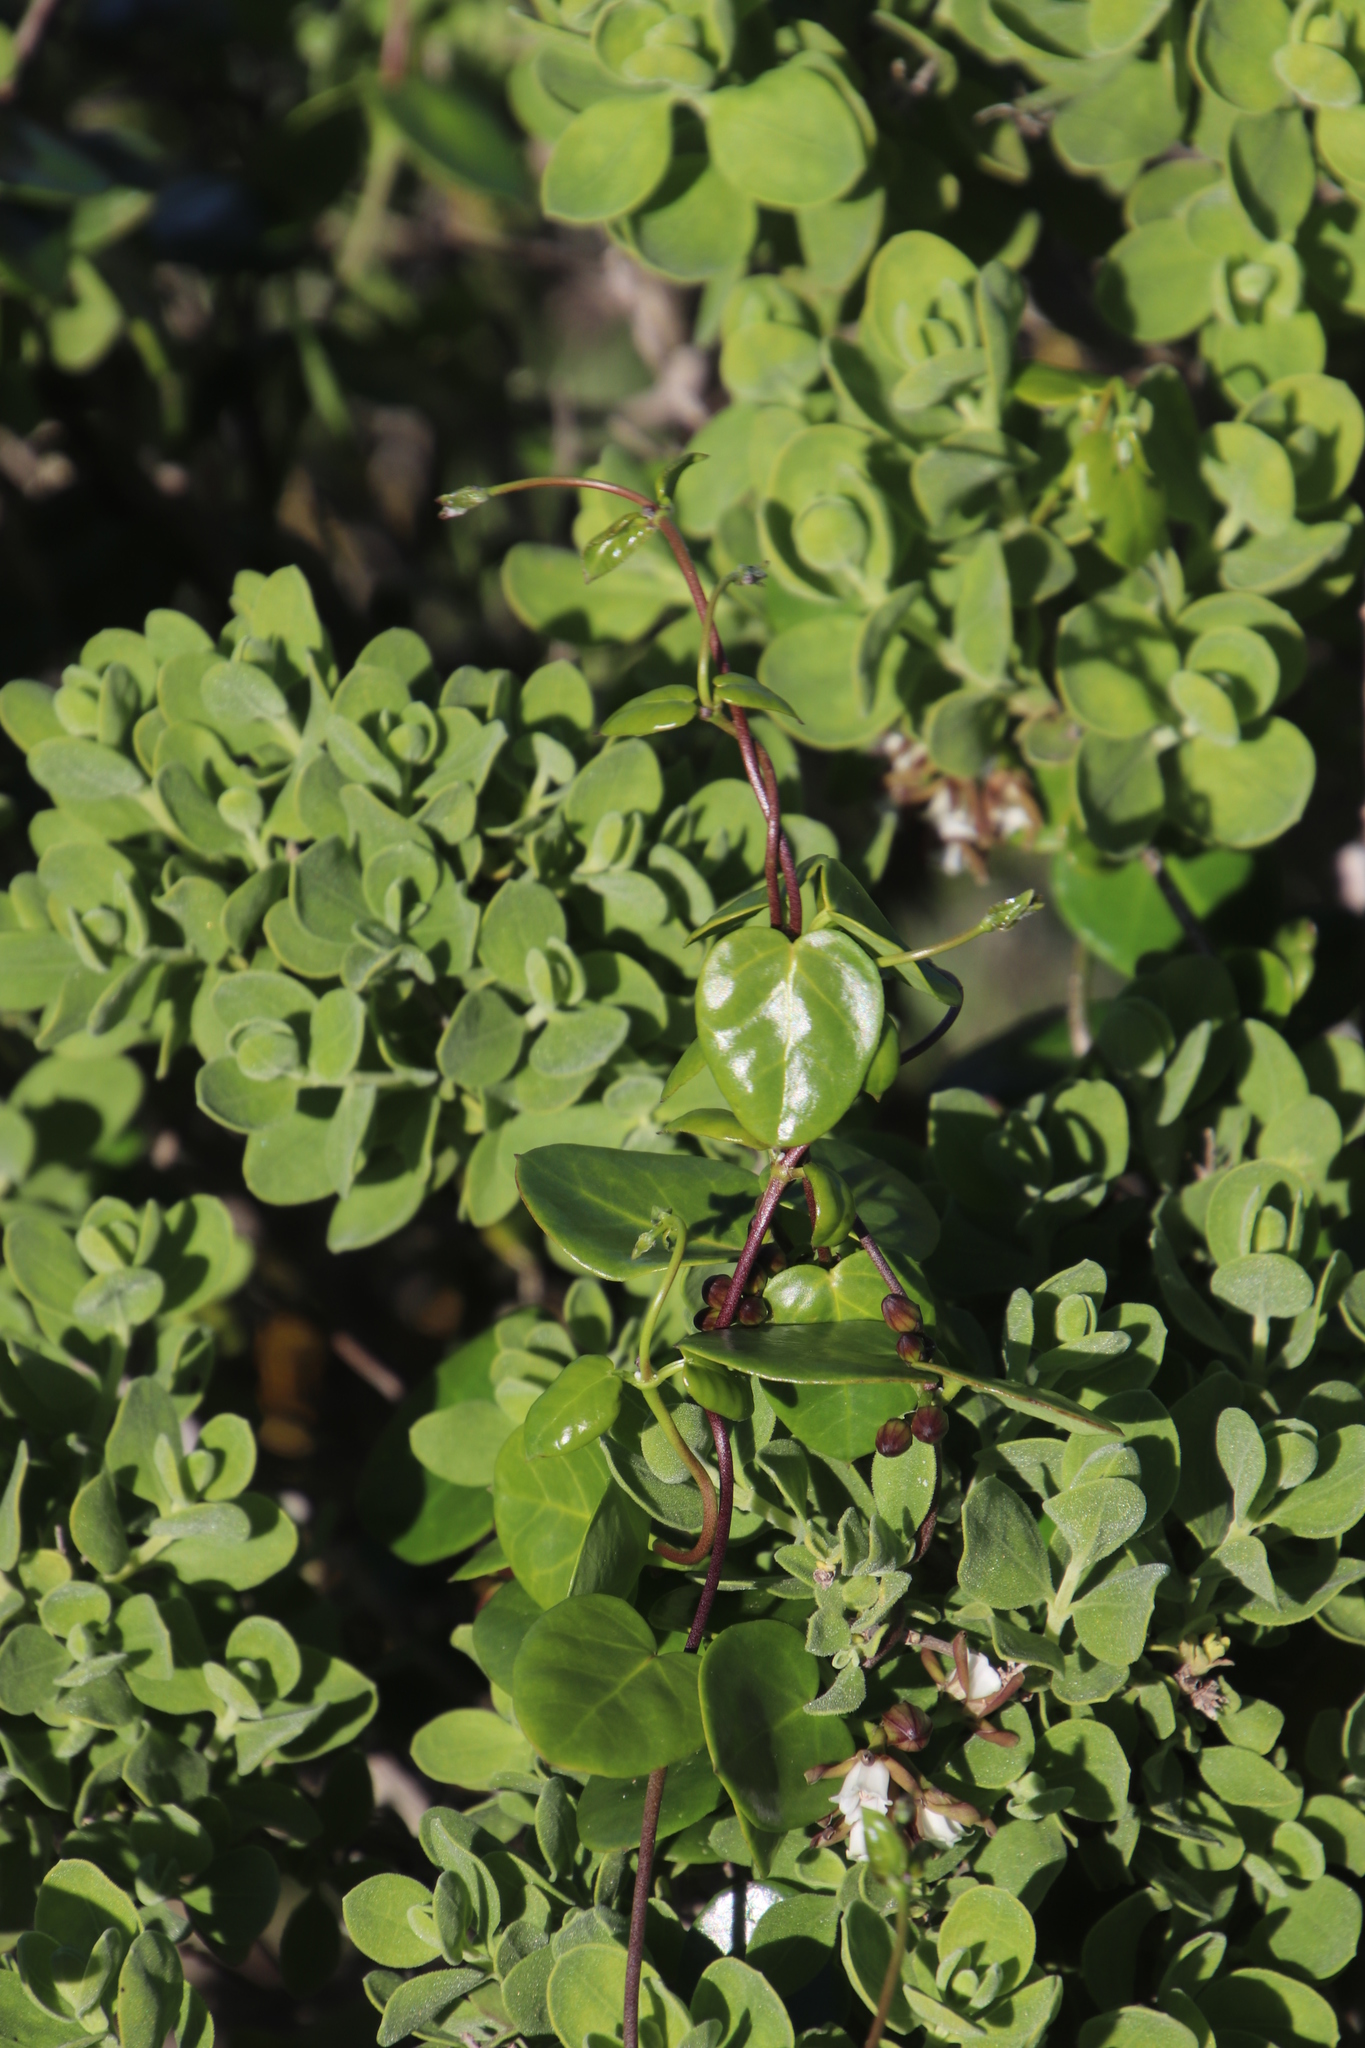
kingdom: Plantae
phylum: Tracheophyta
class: Magnoliopsida
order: Gentianales
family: Apocynaceae
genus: Cynanchum
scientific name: Cynanchum africanum
